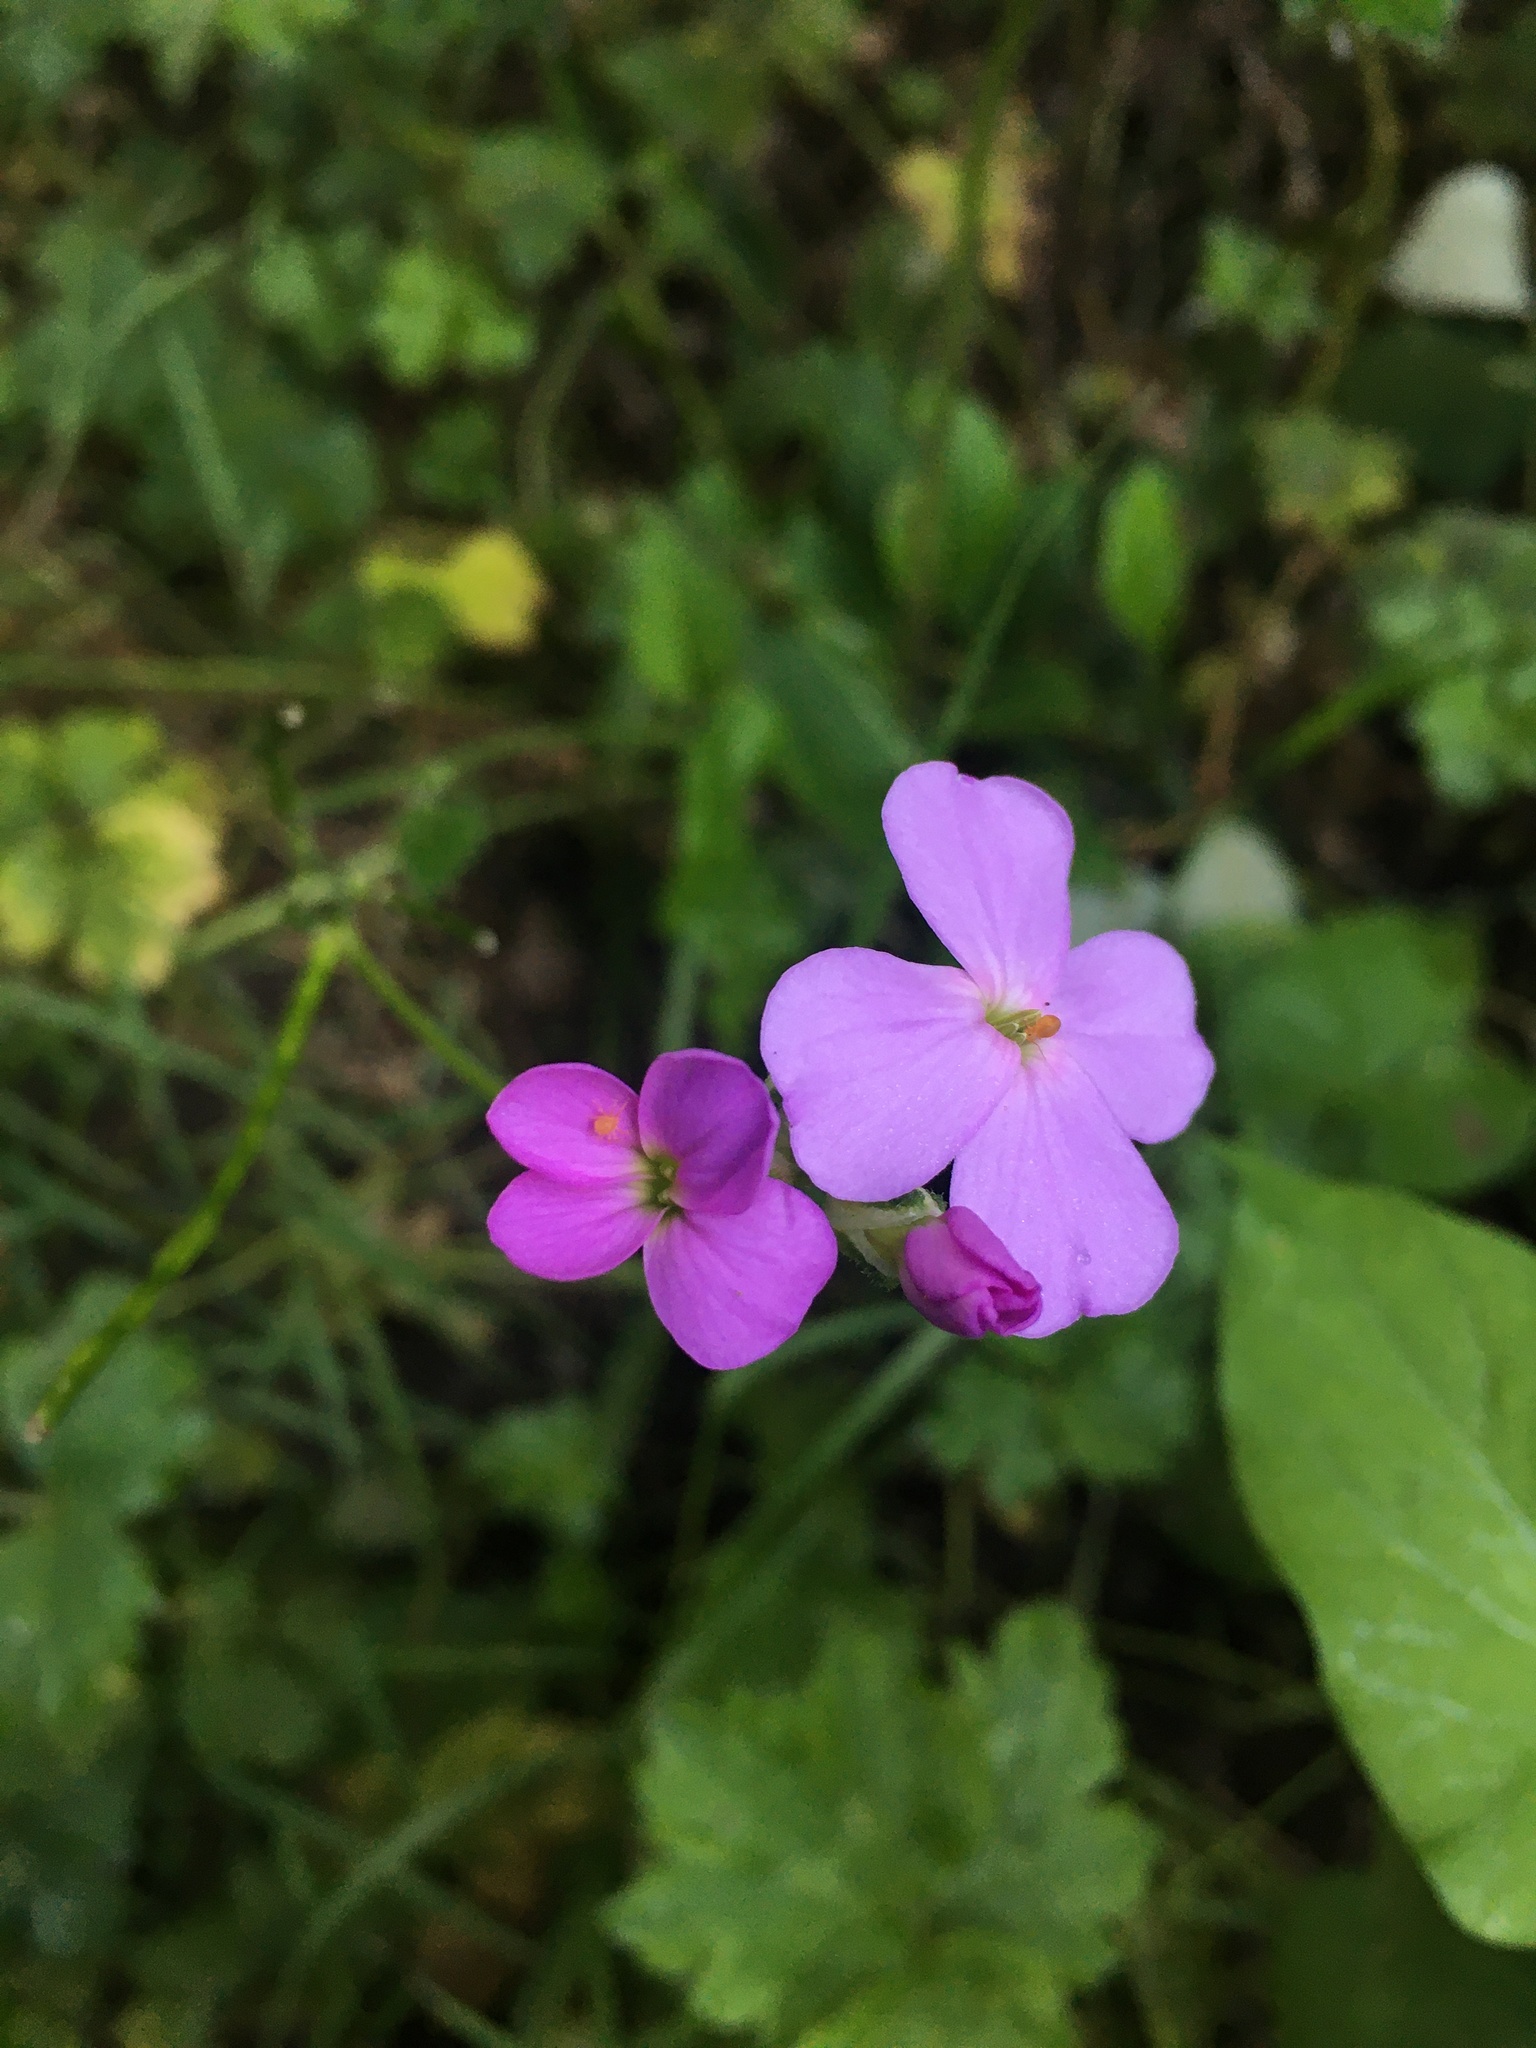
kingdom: Plantae
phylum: Tracheophyta
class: Magnoliopsida
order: Brassicales
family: Brassicaceae
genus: Hesperis
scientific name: Hesperis matronalis
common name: Dame's-violet
